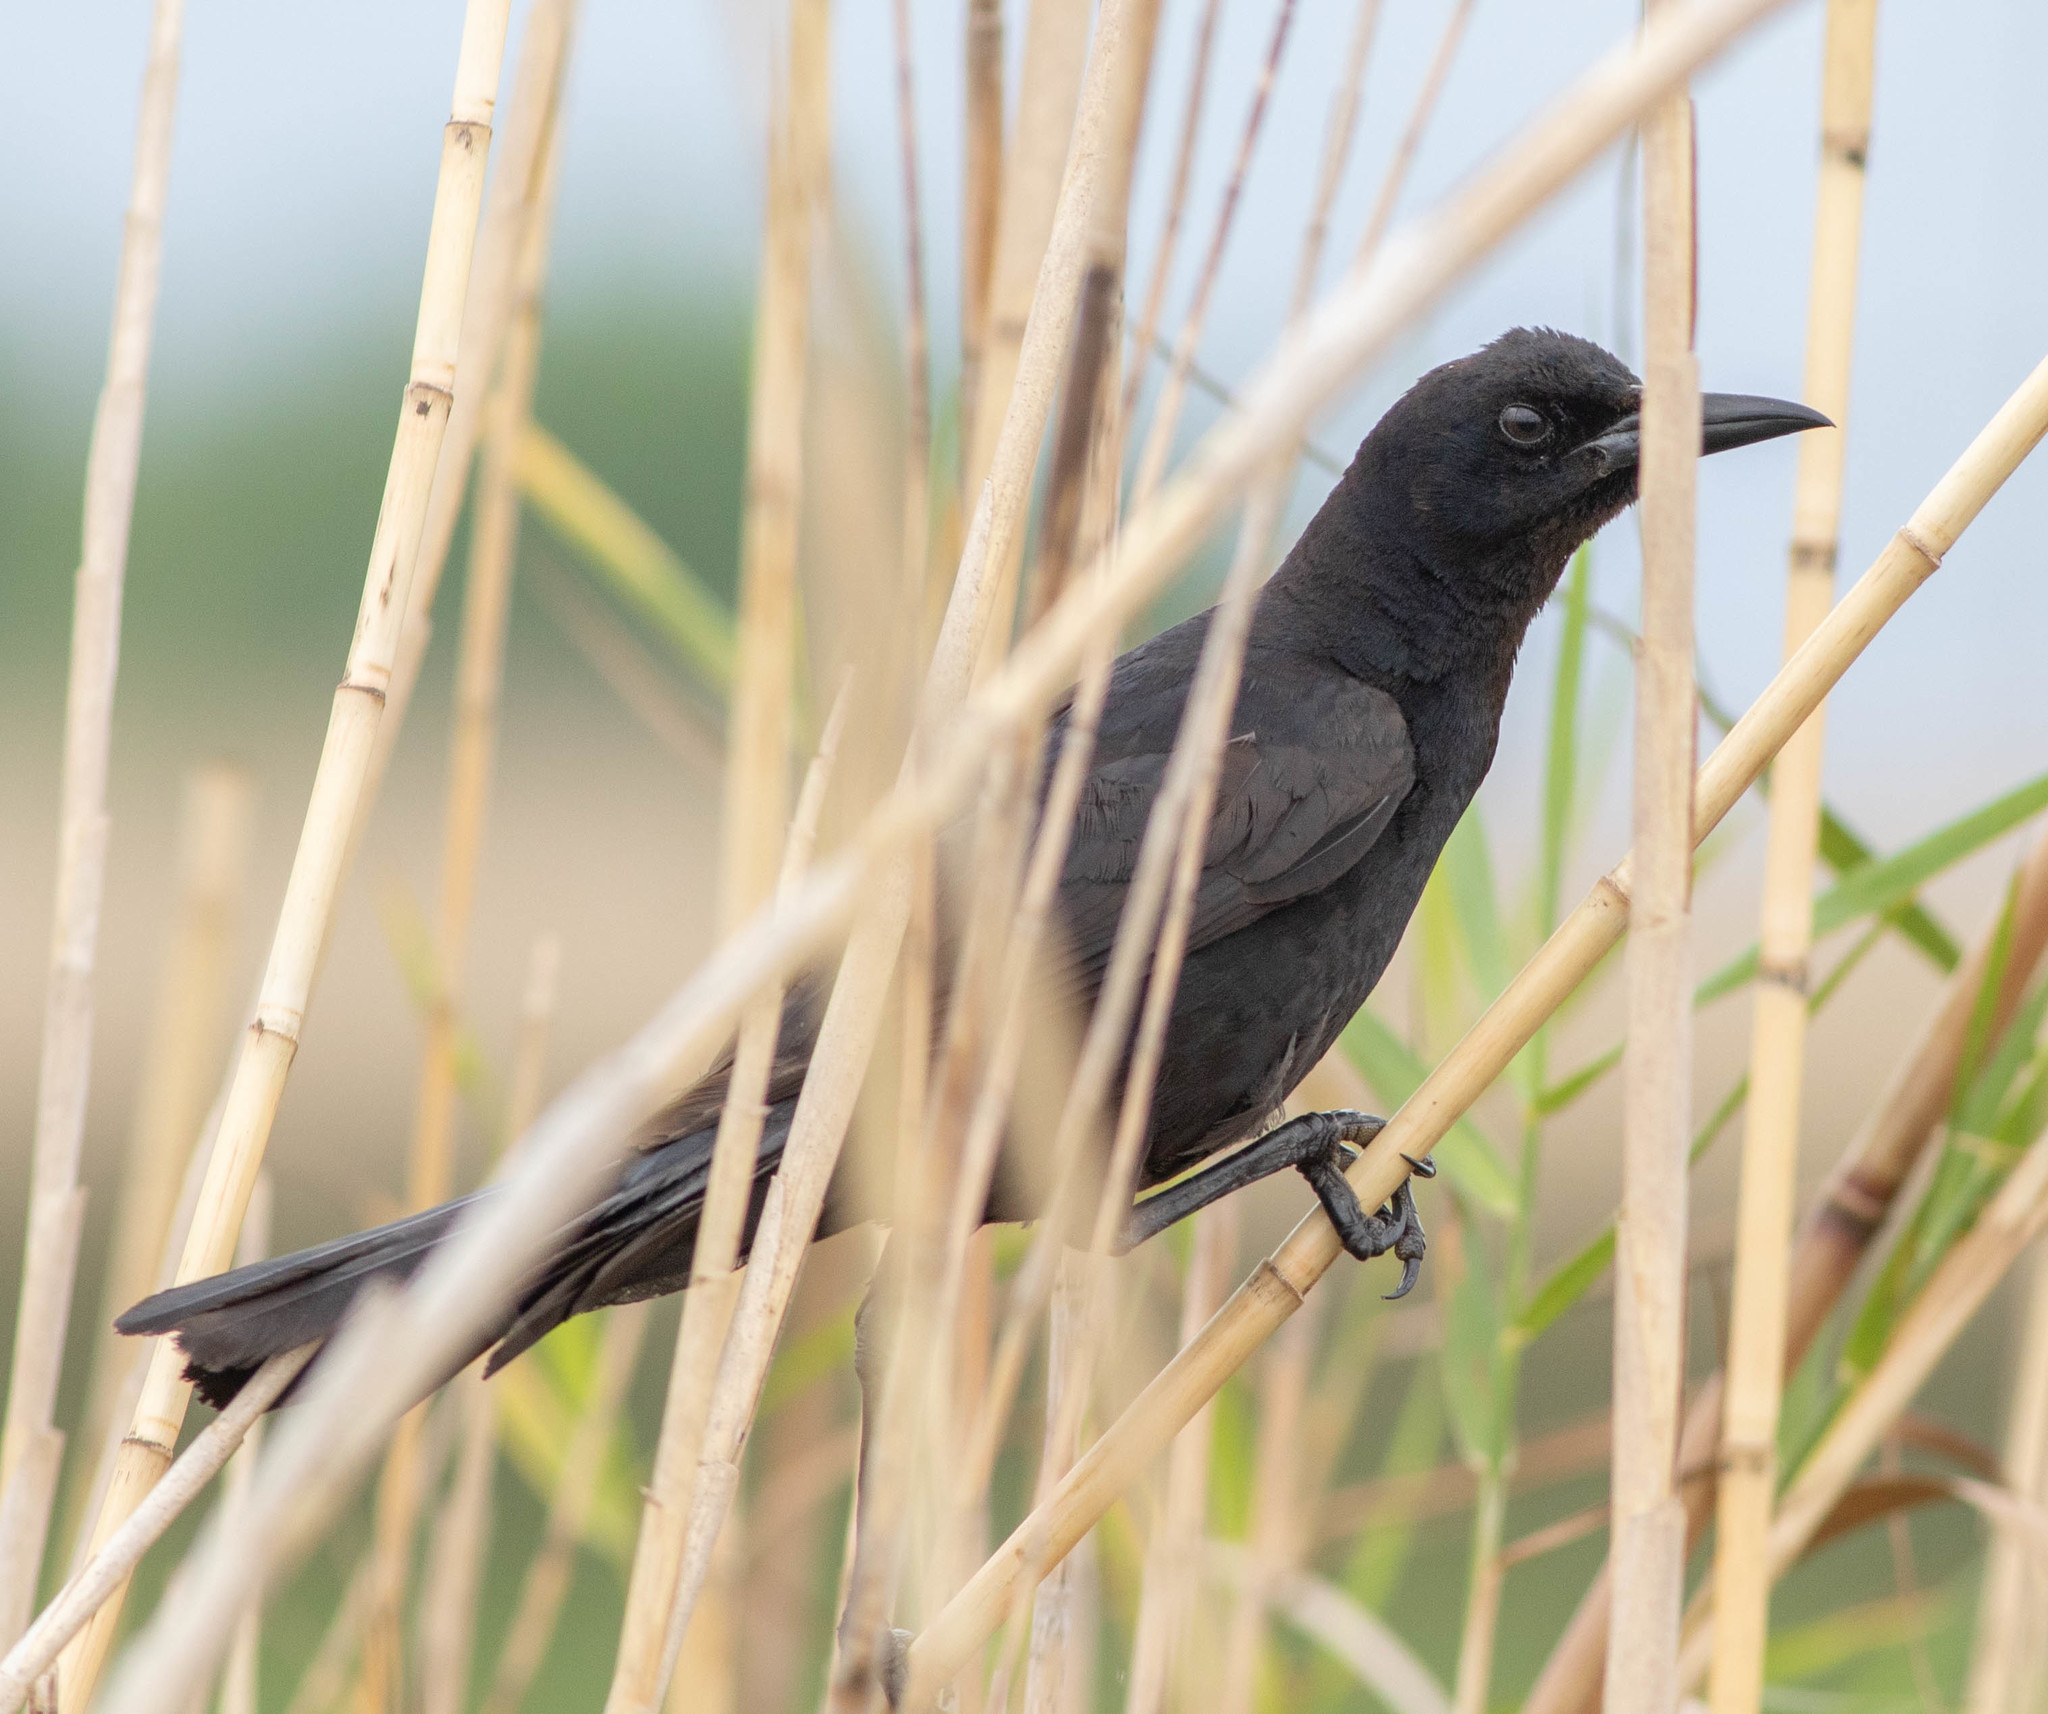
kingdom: Animalia
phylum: Chordata
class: Aves
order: Passeriformes
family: Icteridae
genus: Quiscalus
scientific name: Quiscalus major
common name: Boat-tailed grackle
